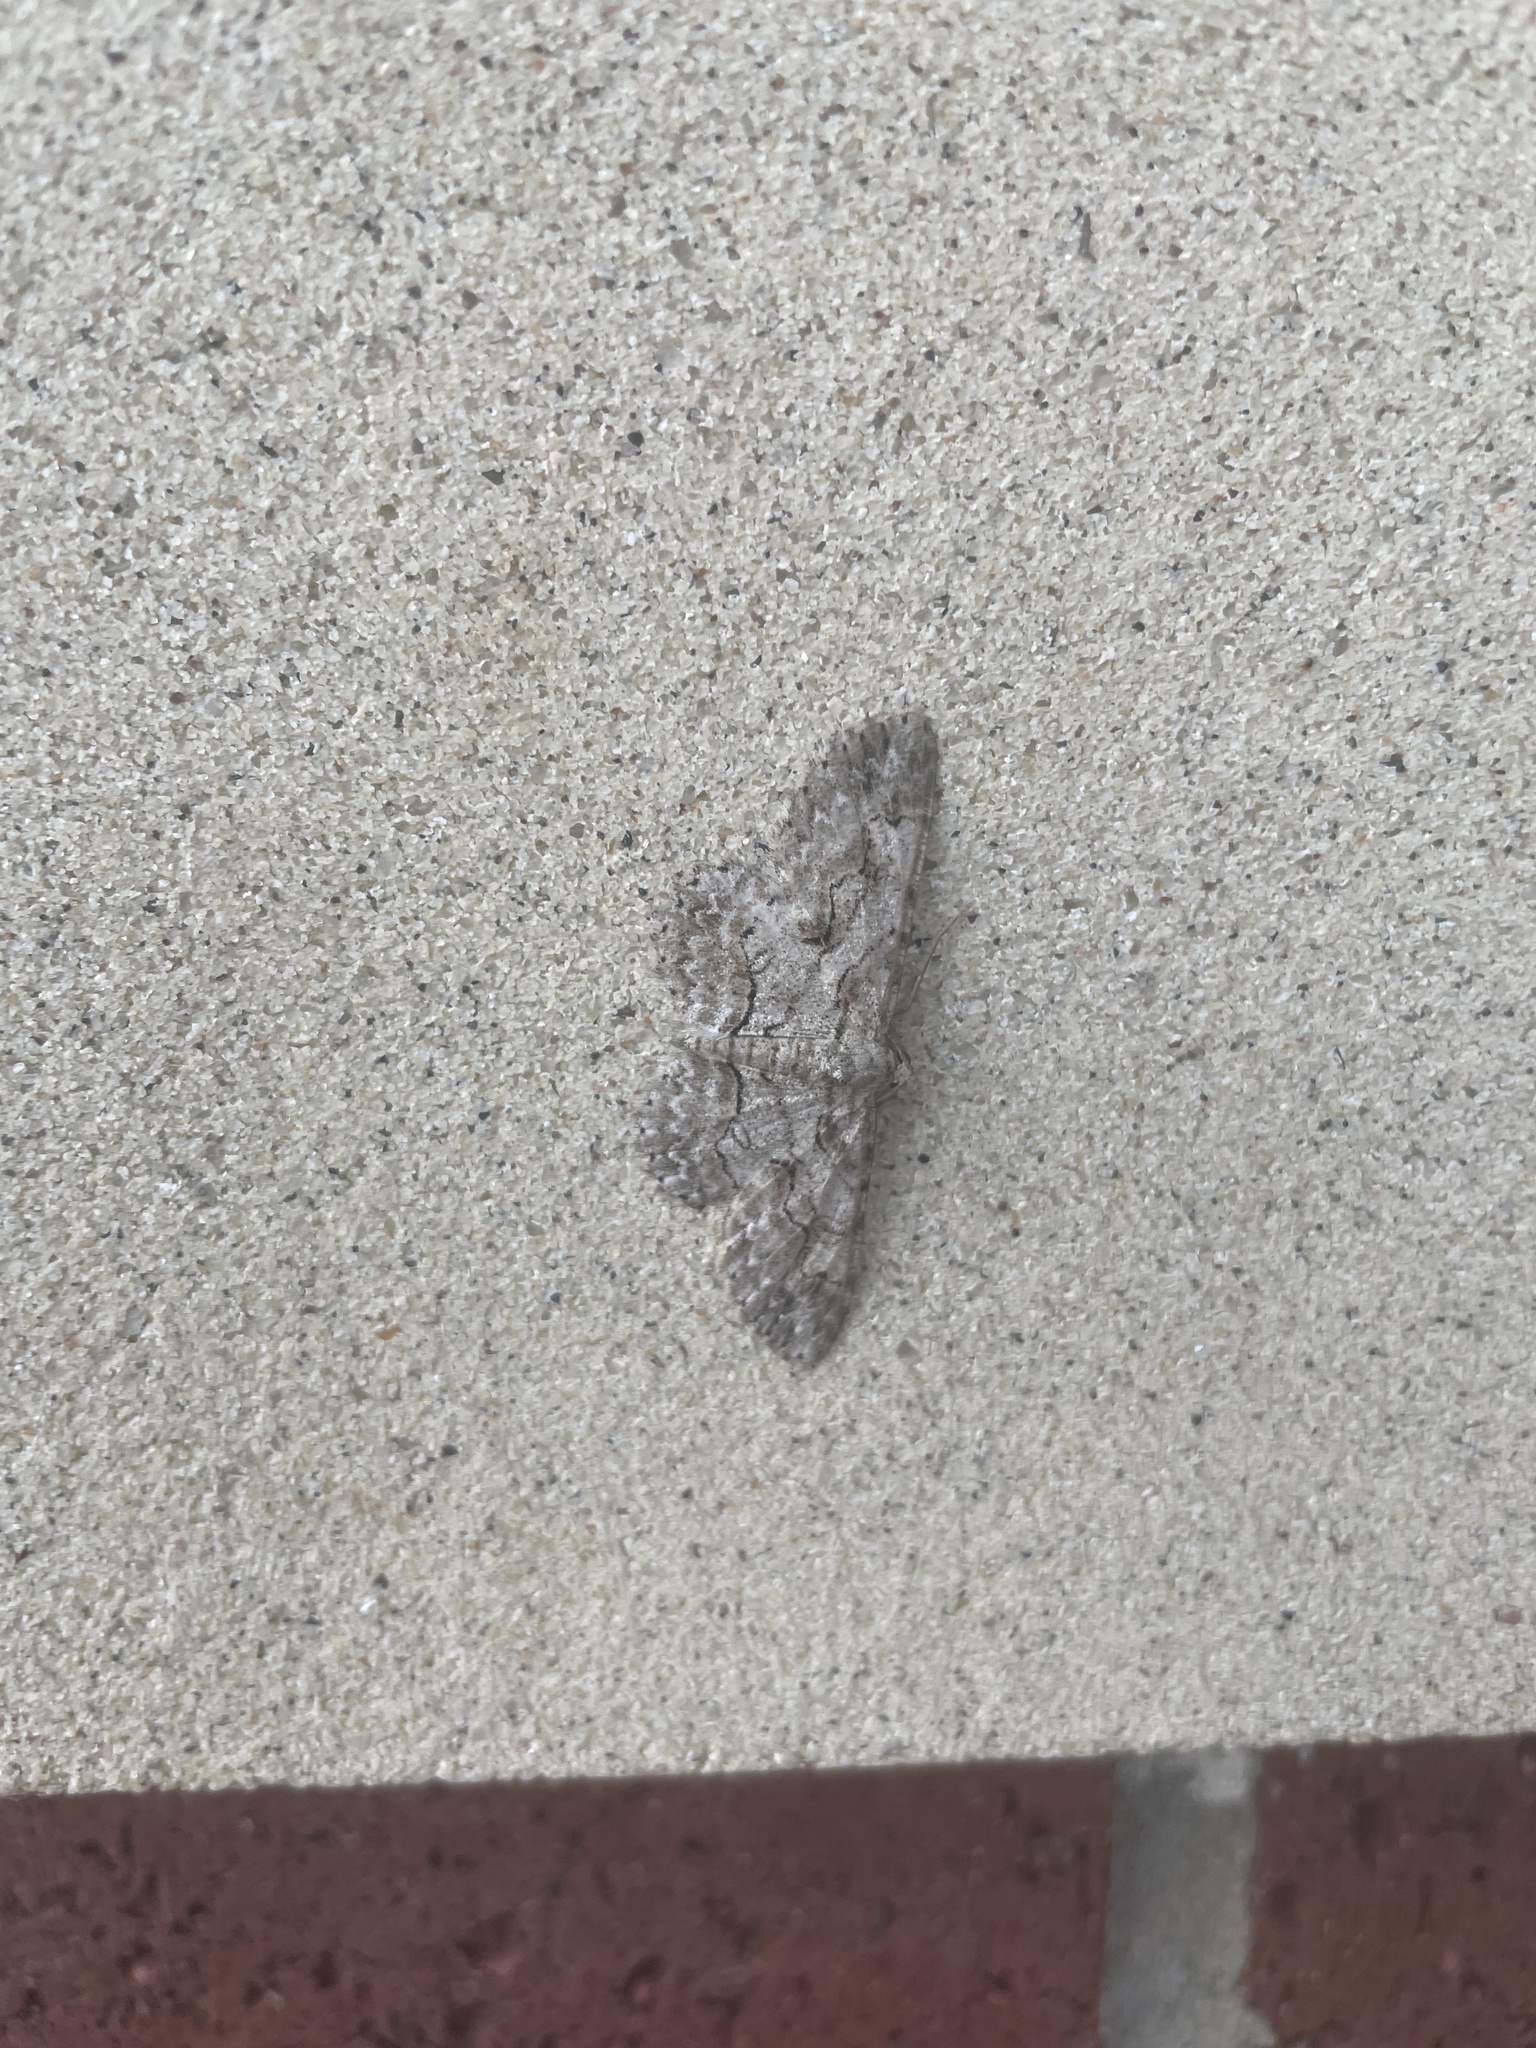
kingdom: Animalia
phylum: Arthropoda
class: Insecta
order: Lepidoptera
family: Geometridae
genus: Iridopsis
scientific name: Iridopsis defectaria
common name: Brown-shaded gray
